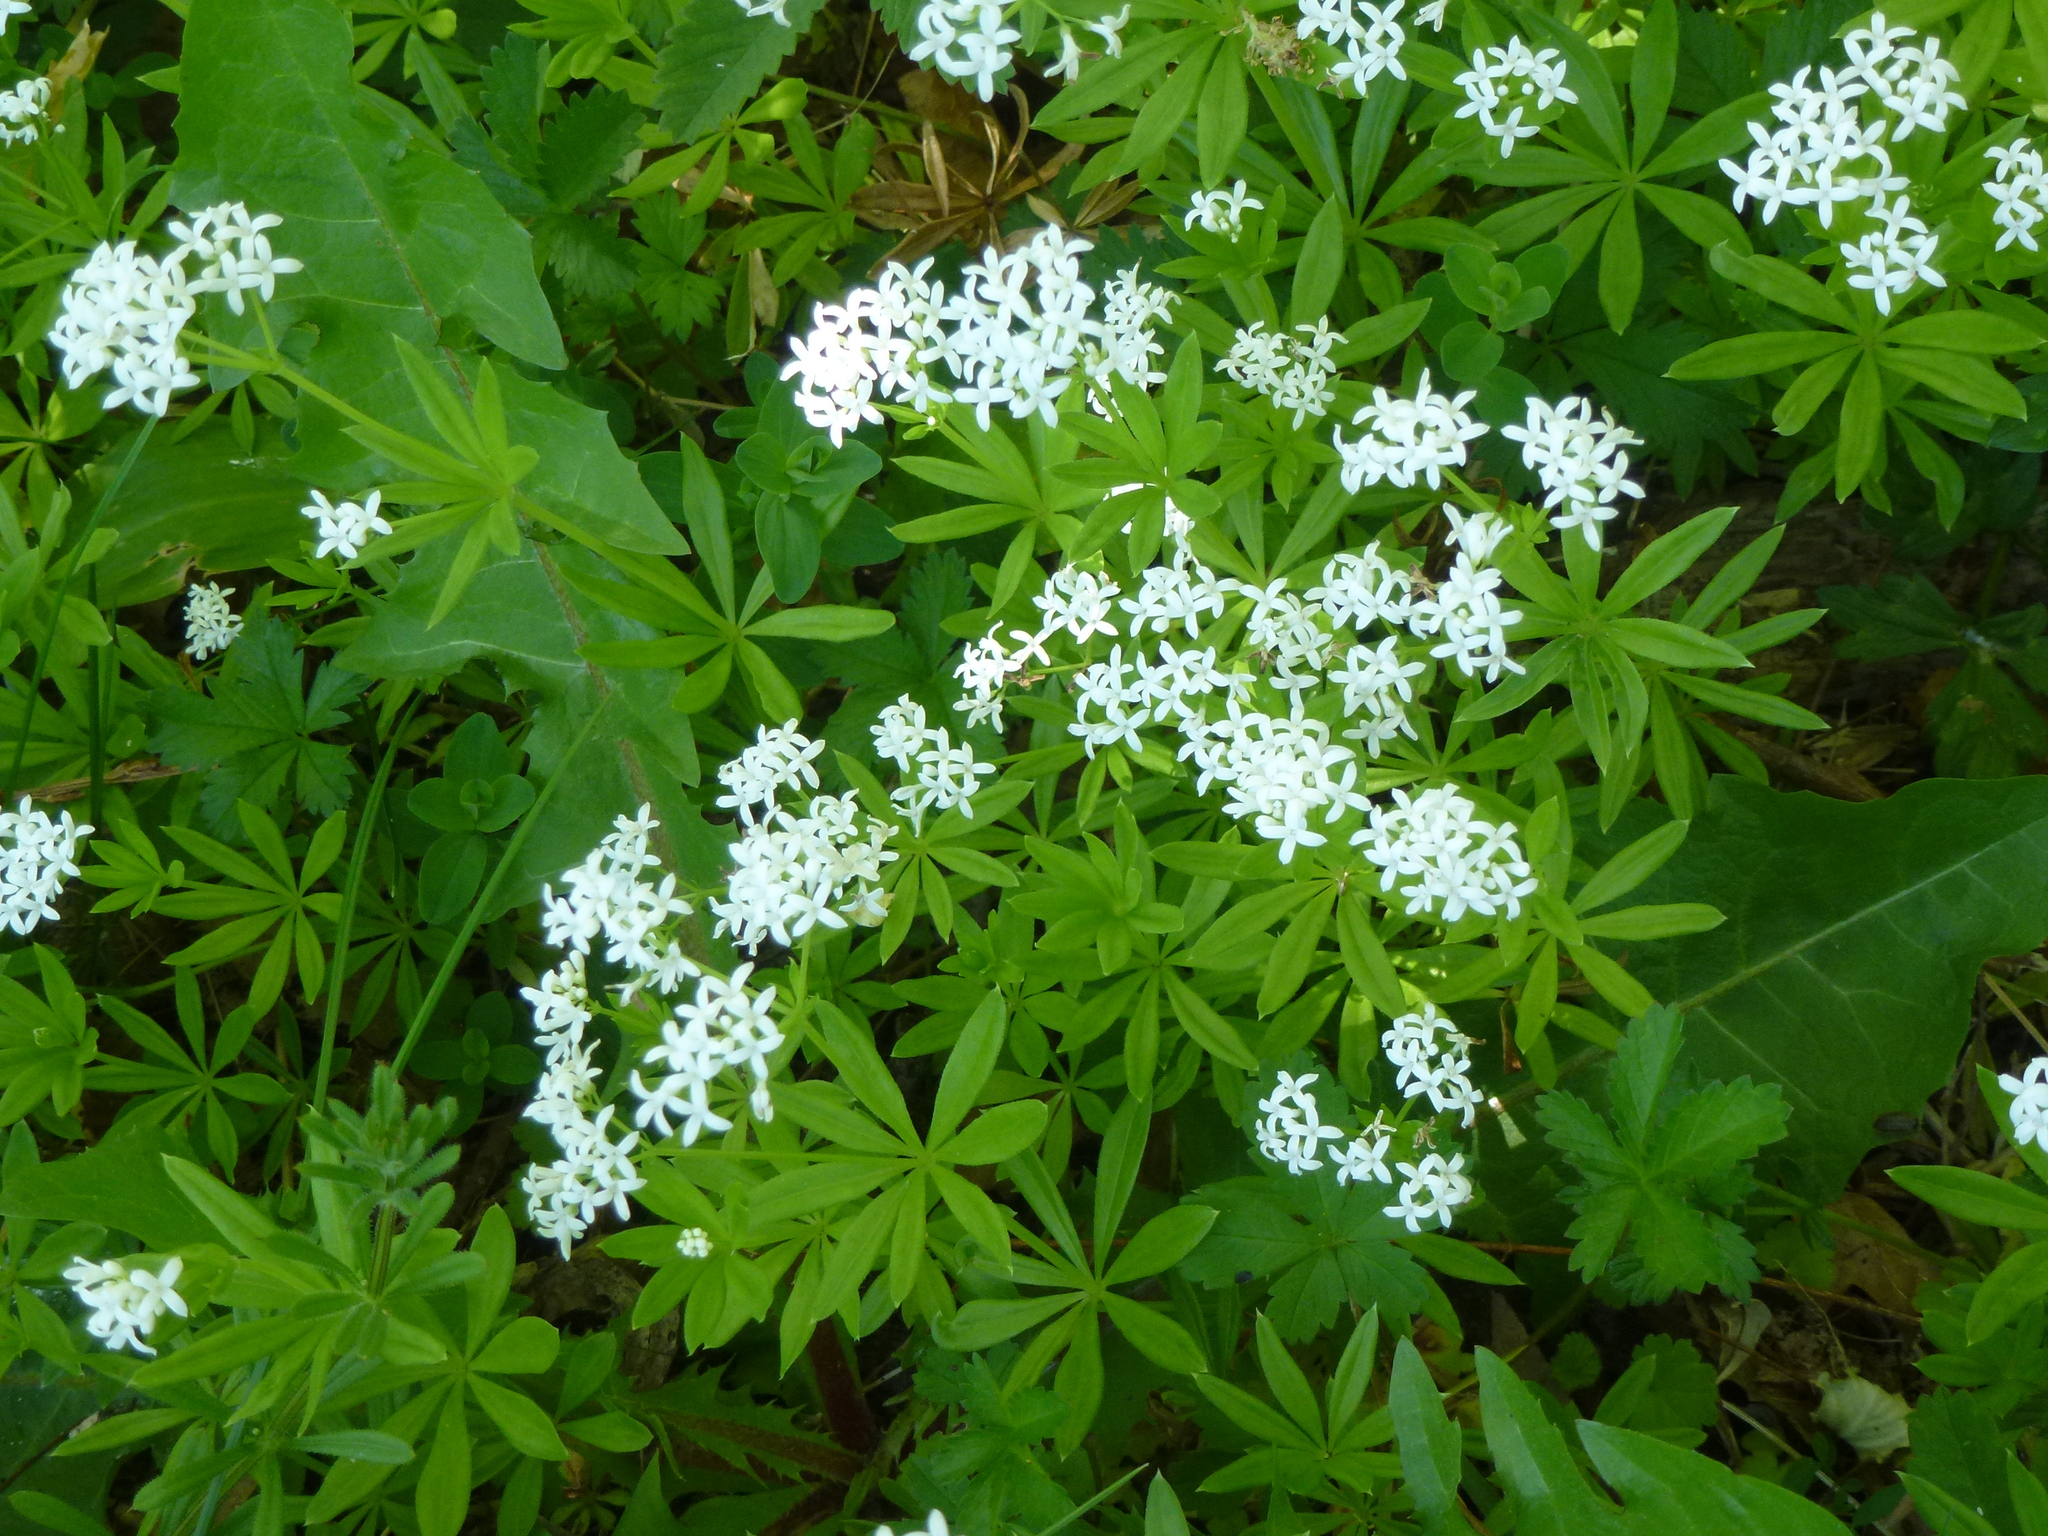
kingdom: Plantae
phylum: Tracheophyta
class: Magnoliopsida
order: Gentianales
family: Rubiaceae
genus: Galium
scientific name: Galium odoratum
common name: Sweet woodruff
